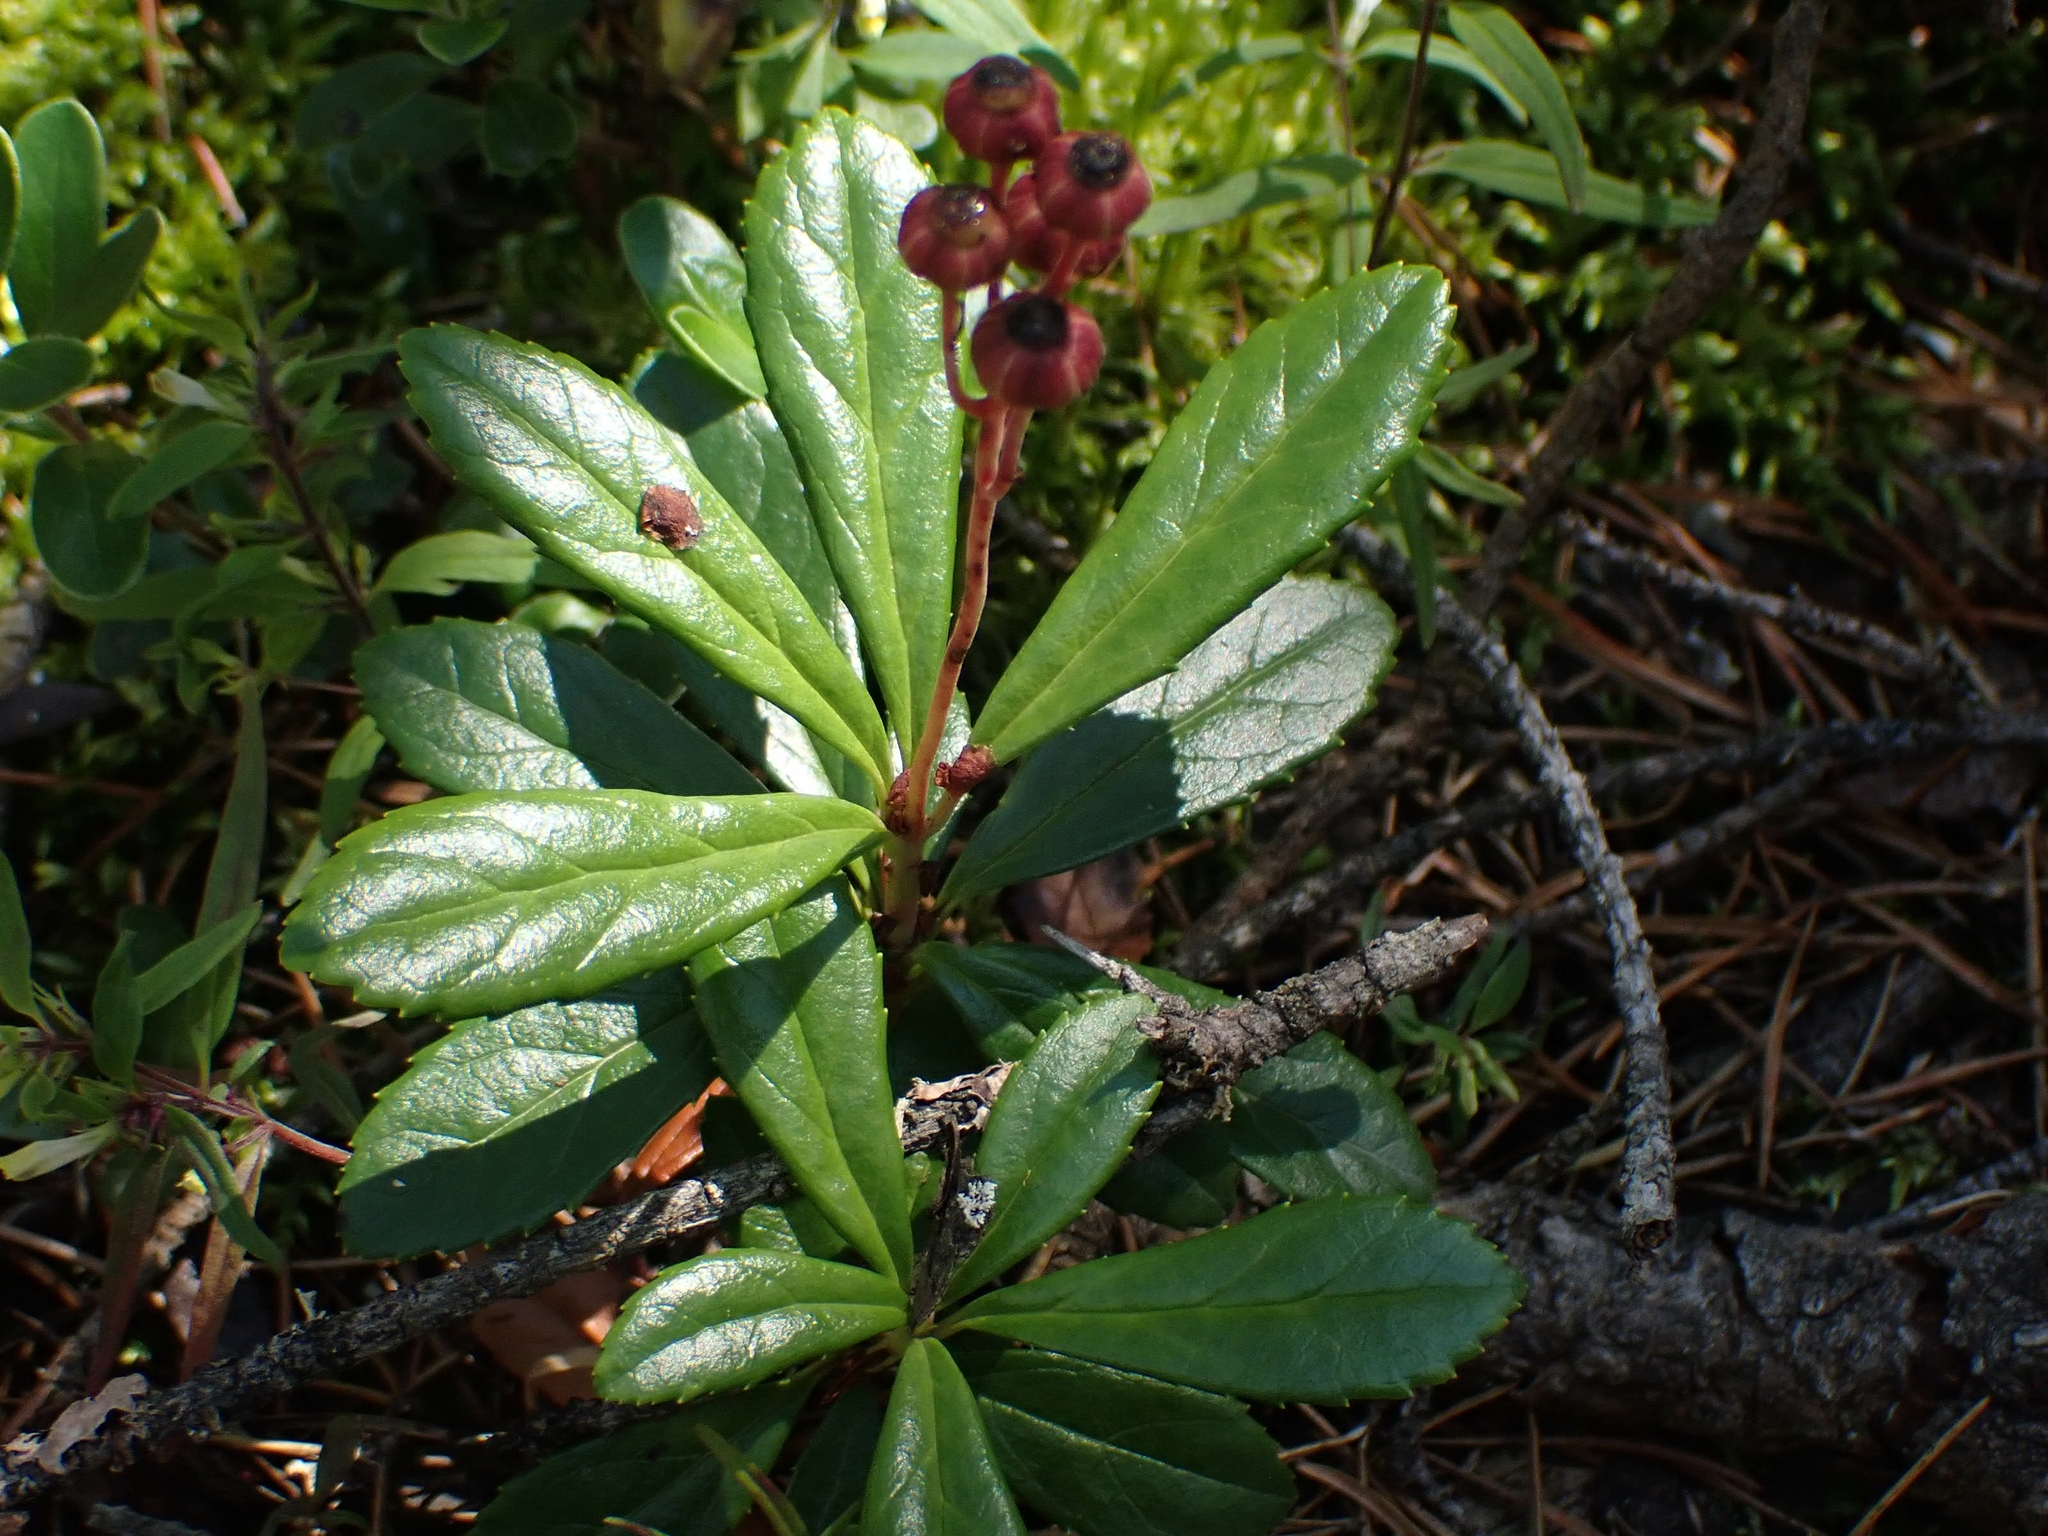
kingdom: Plantae
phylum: Tracheophyta
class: Magnoliopsida
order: Ericales
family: Ericaceae
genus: Chimaphila
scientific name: Chimaphila umbellata
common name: Pipsissewa
